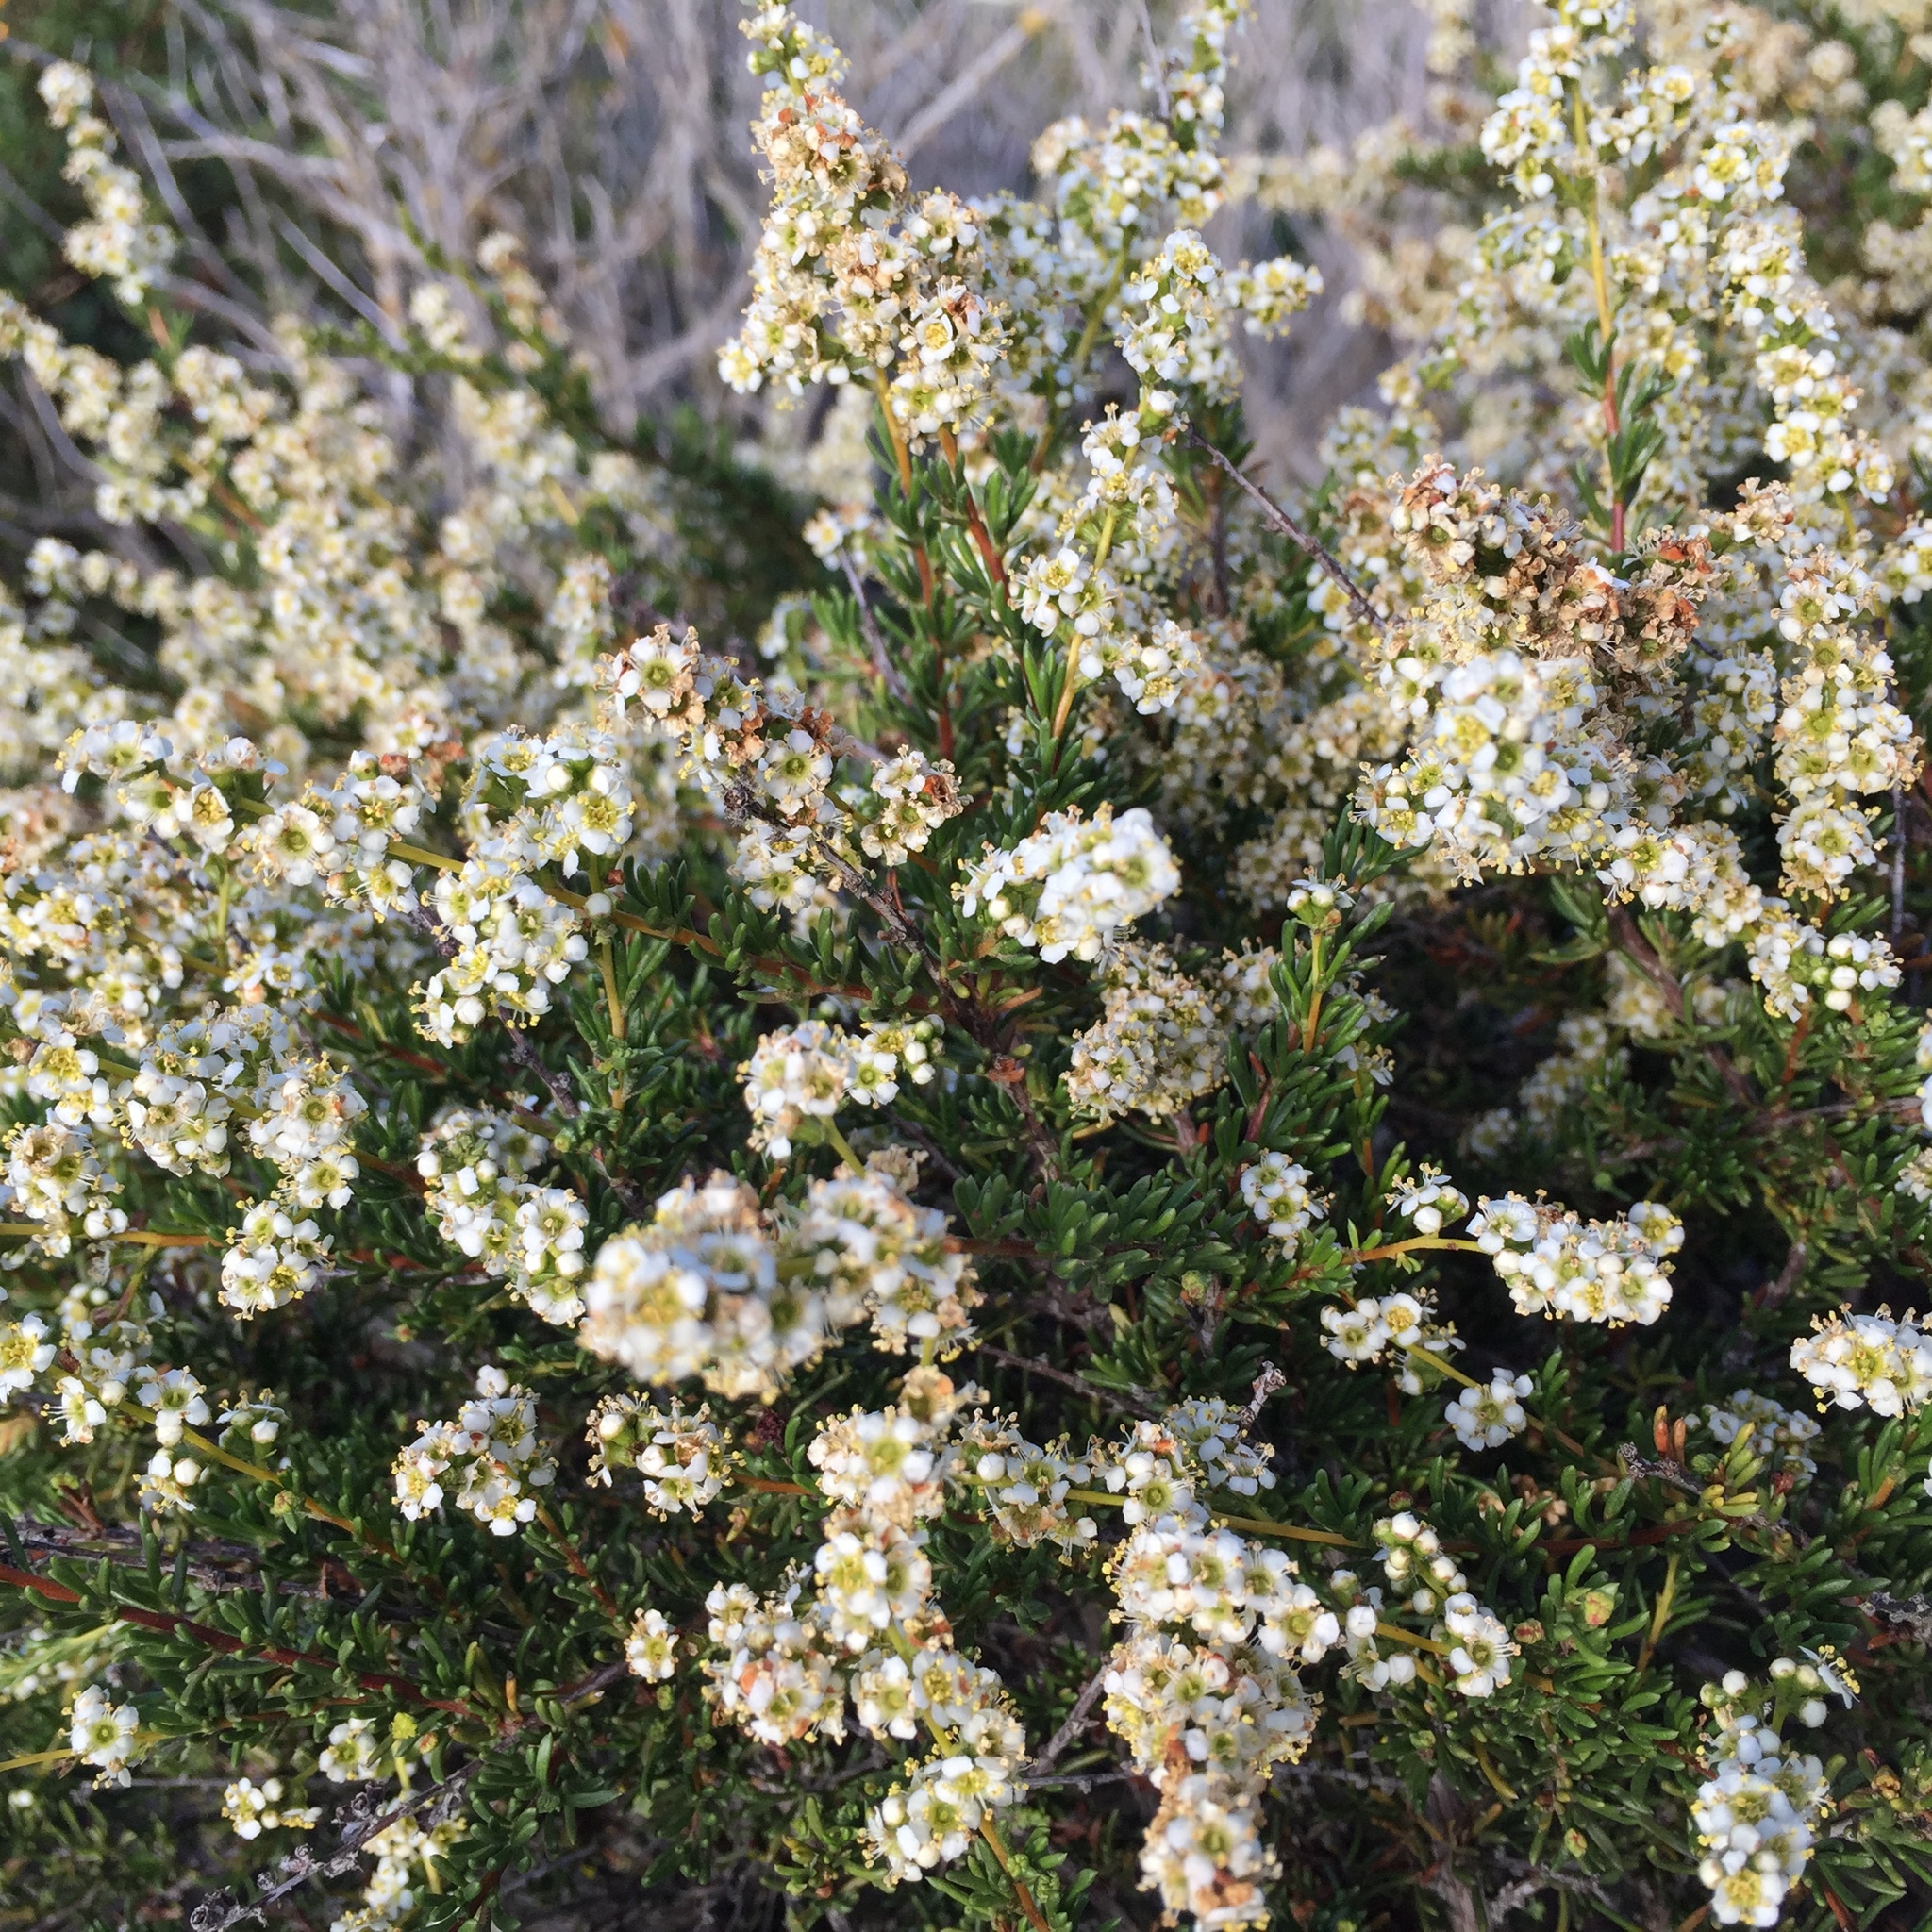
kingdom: Plantae
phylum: Tracheophyta
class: Magnoliopsida
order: Rosales
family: Rosaceae
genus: Adenostoma
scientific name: Adenostoma fasciculatum
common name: Chamise
